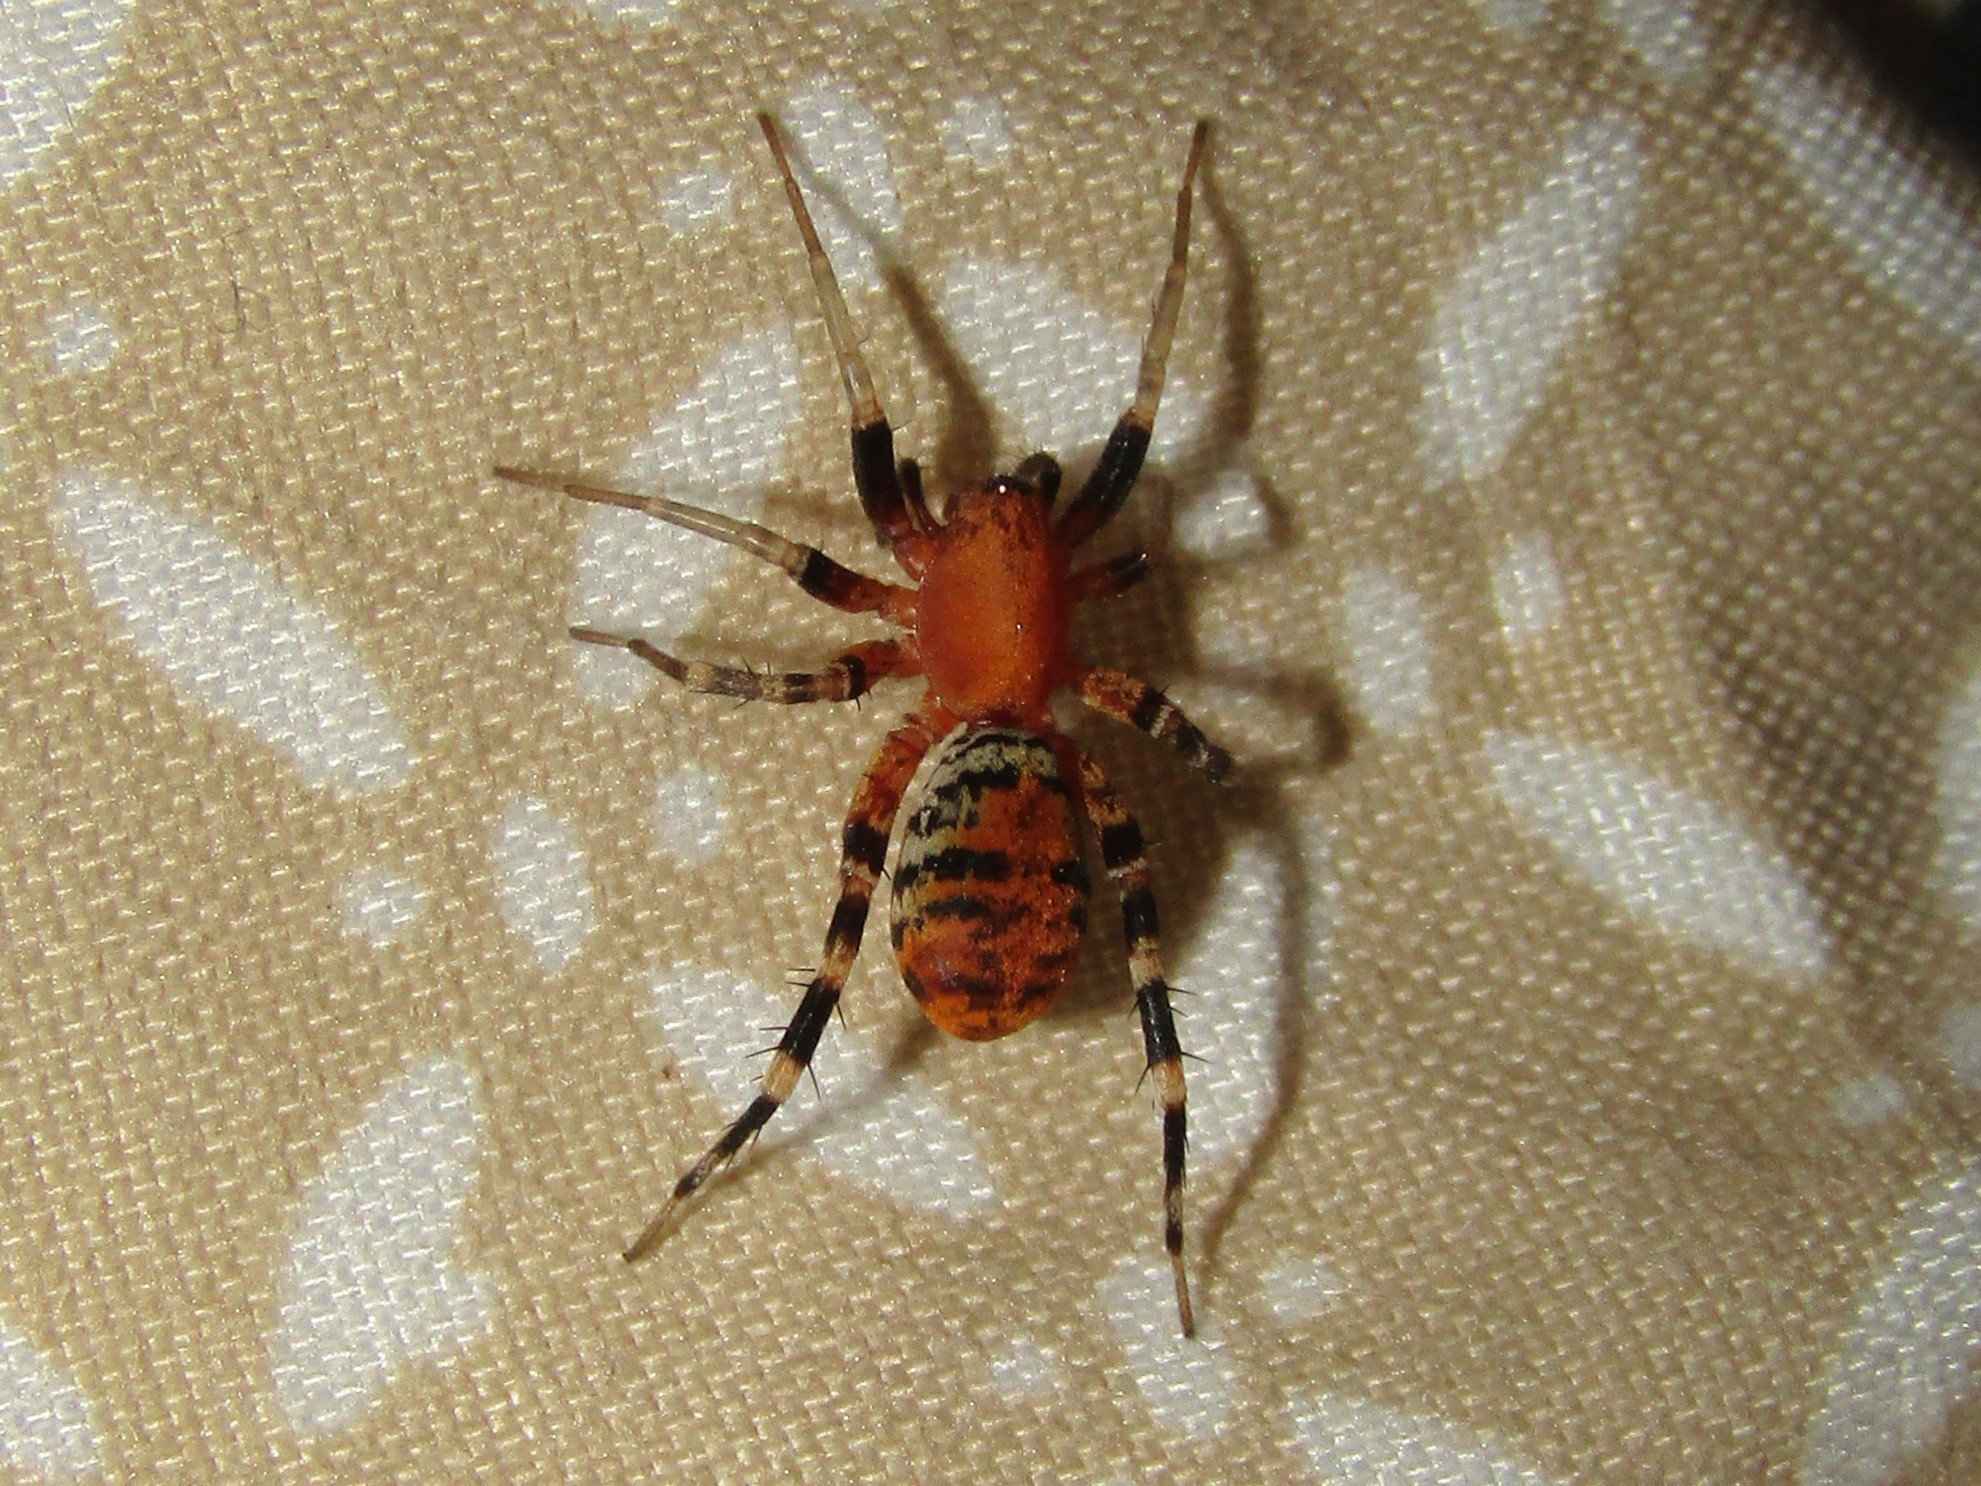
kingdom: Animalia
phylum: Arthropoda
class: Arachnida
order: Araneae
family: Corinnidae
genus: Castianeira
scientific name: Castianeira amoena
